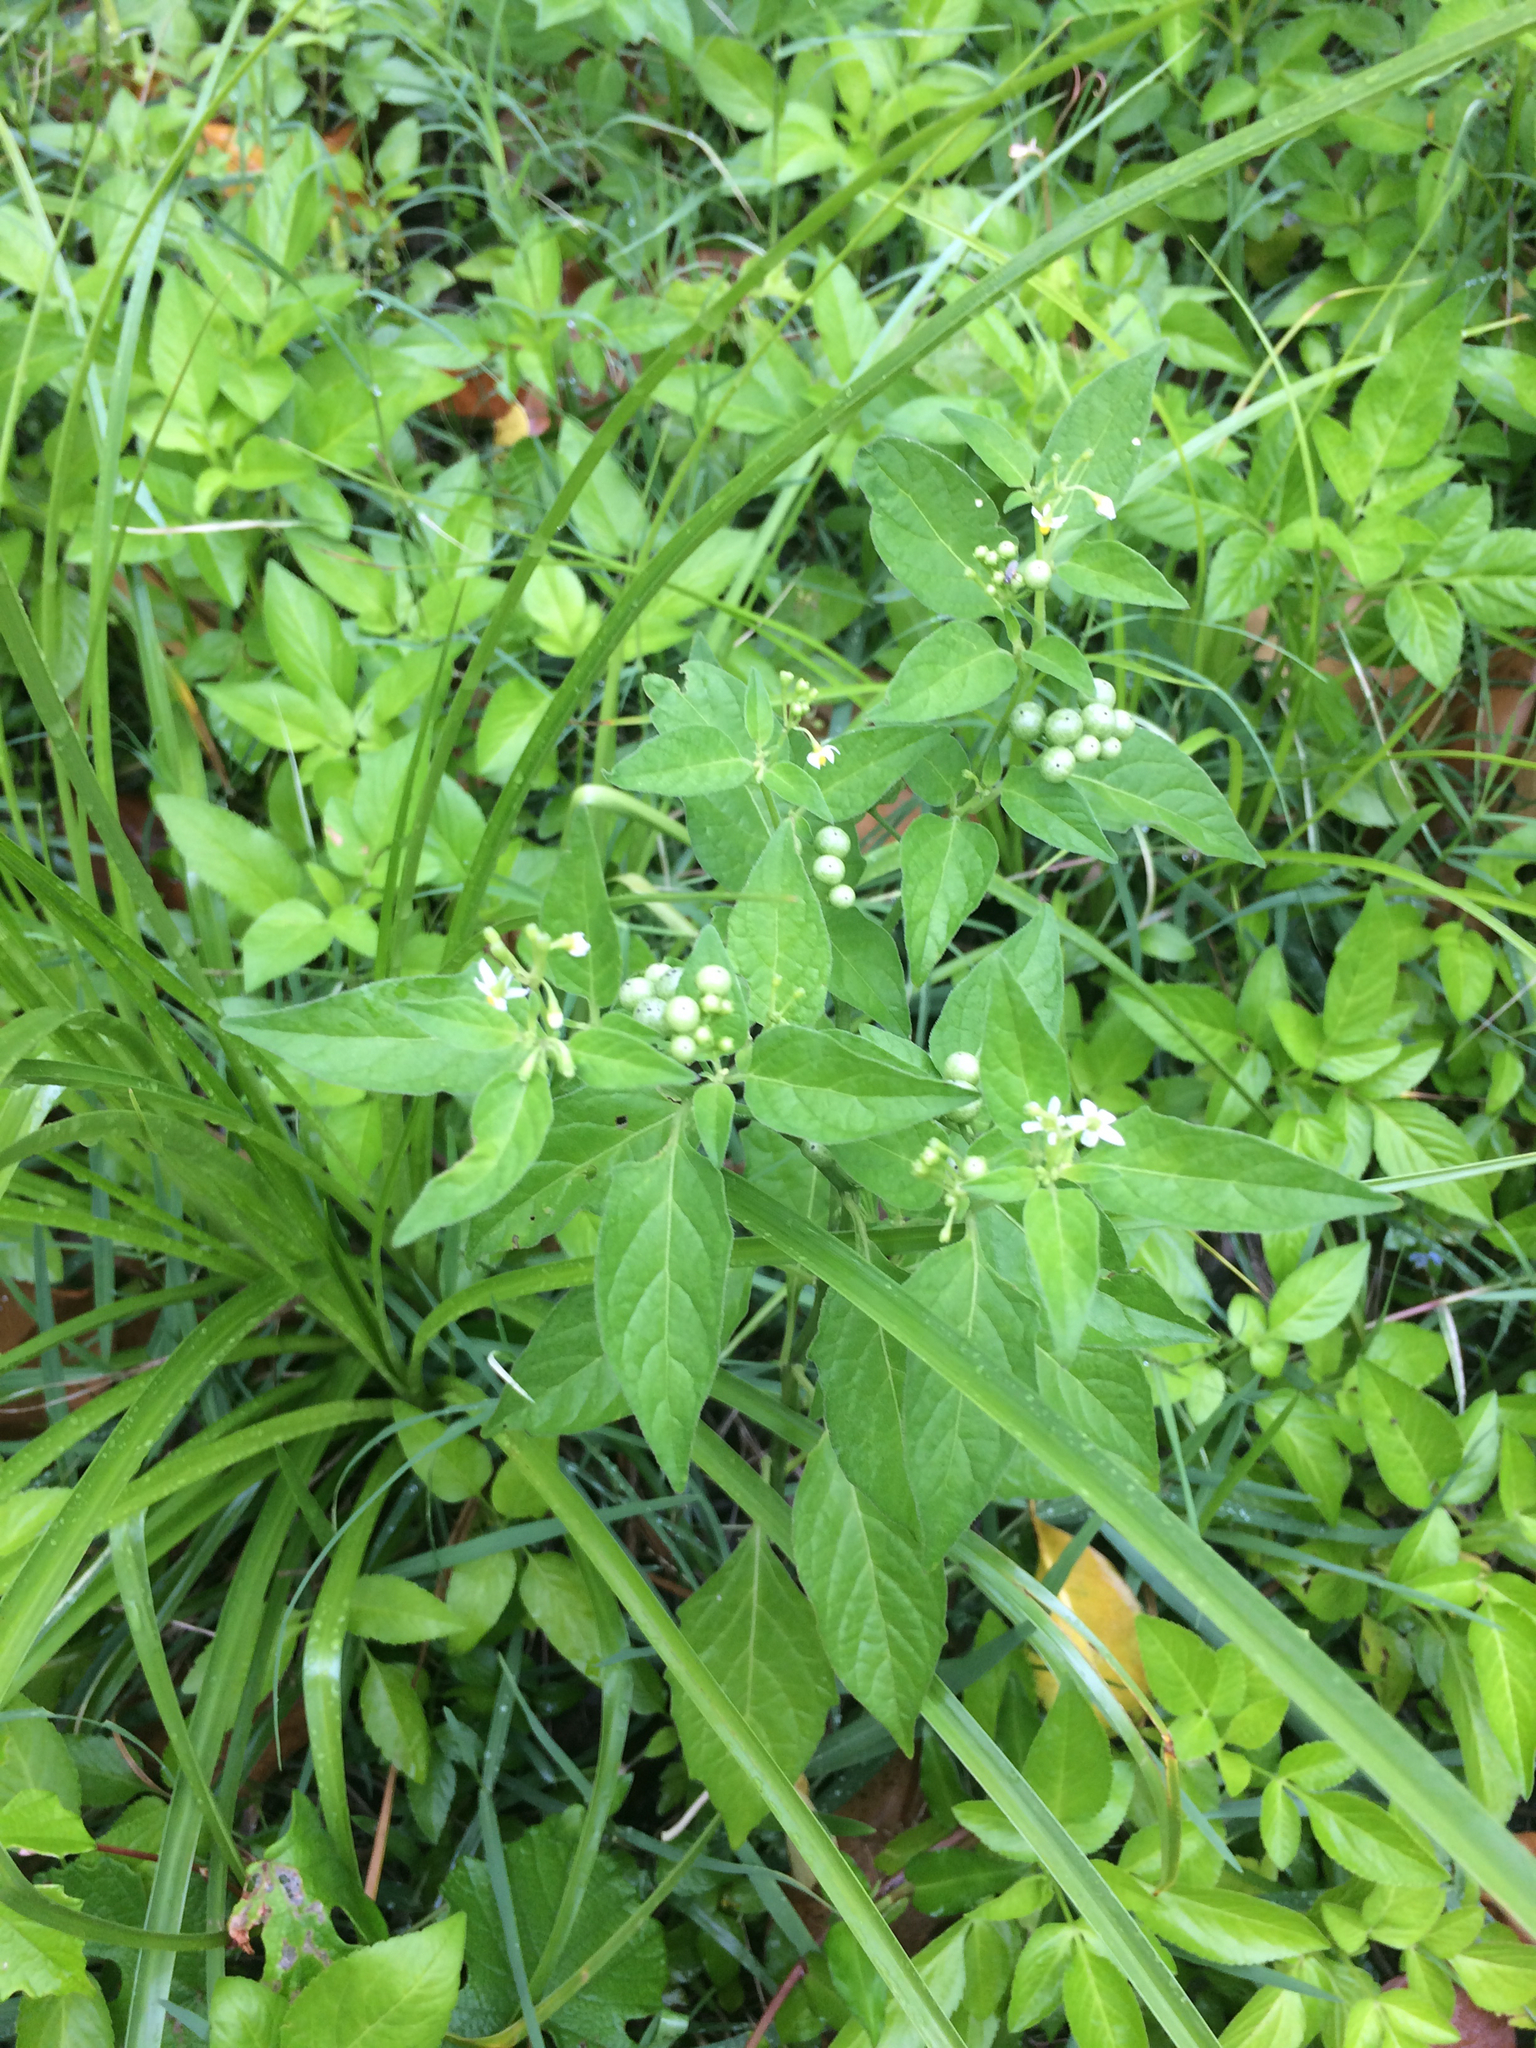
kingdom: Plantae
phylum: Tracheophyta
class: Magnoliopsida
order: Solanales
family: Solanaceae
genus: Solanum
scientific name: Solanum americanum
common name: American black nightshade
